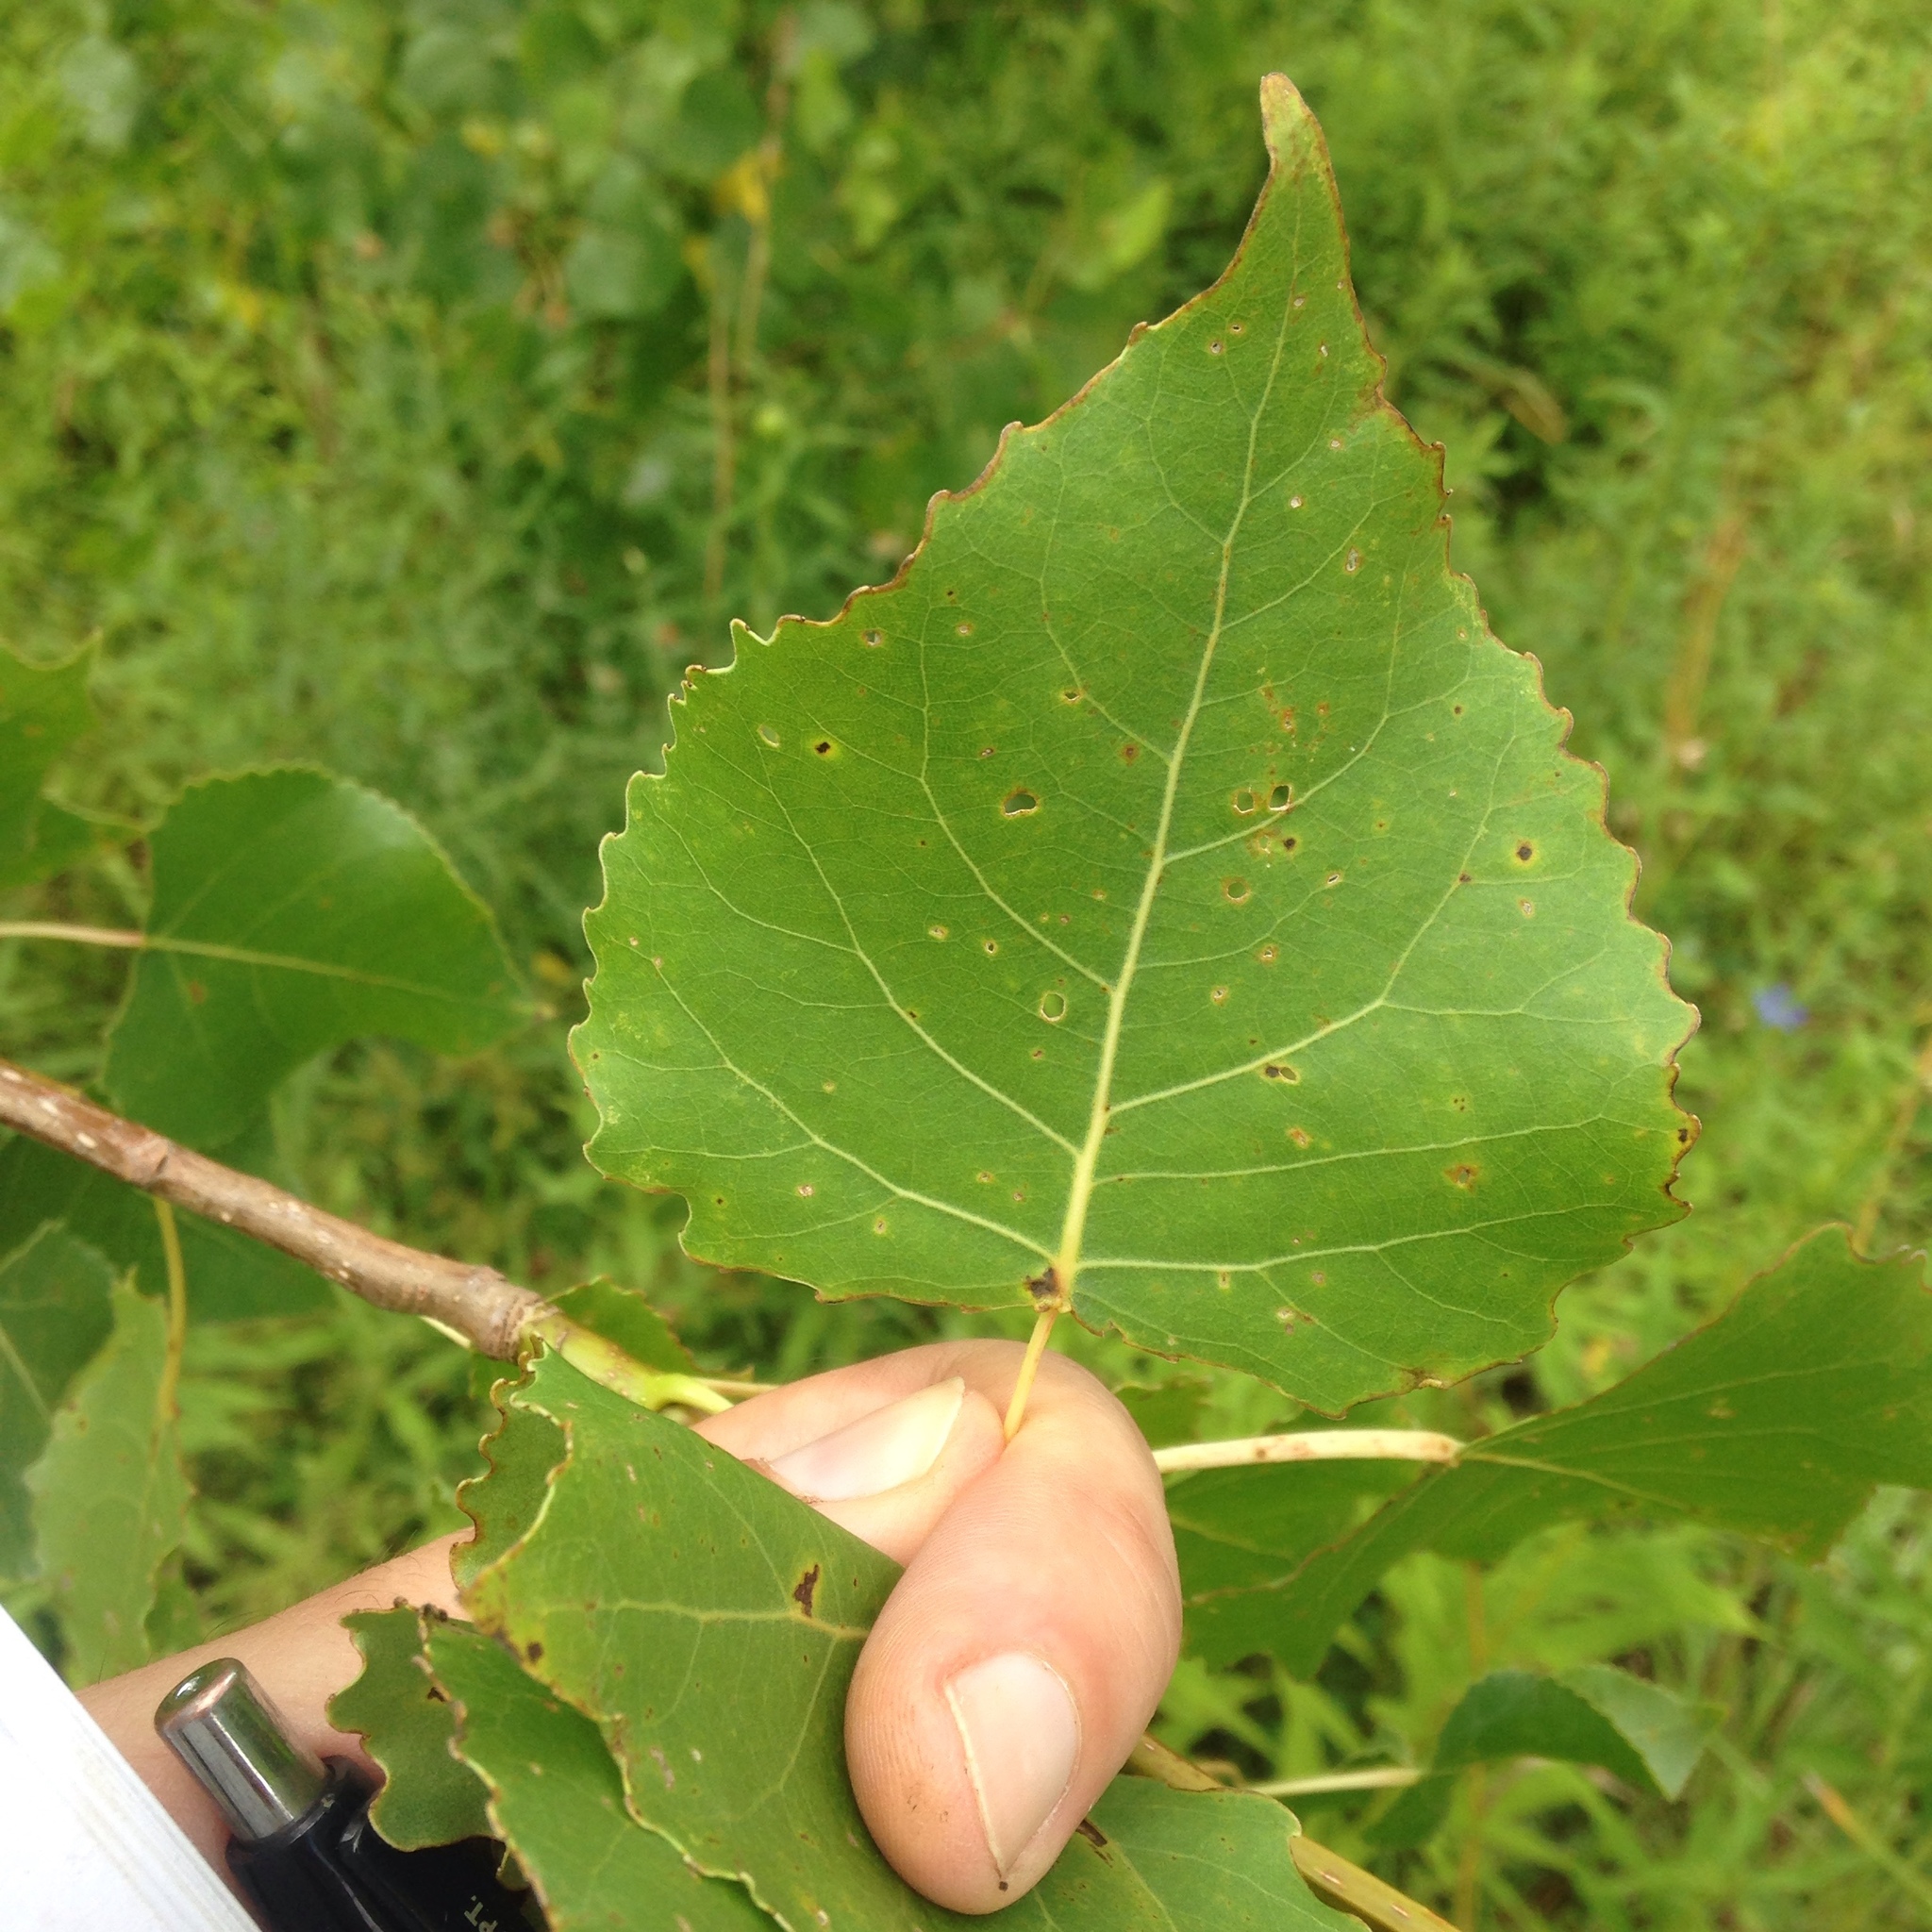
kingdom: Plantae
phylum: Tracheophyta
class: Magnoliopsida
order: Malpighiales
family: Salicaceae
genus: Populus
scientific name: Populus deltoides
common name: Eastern cottonwood
